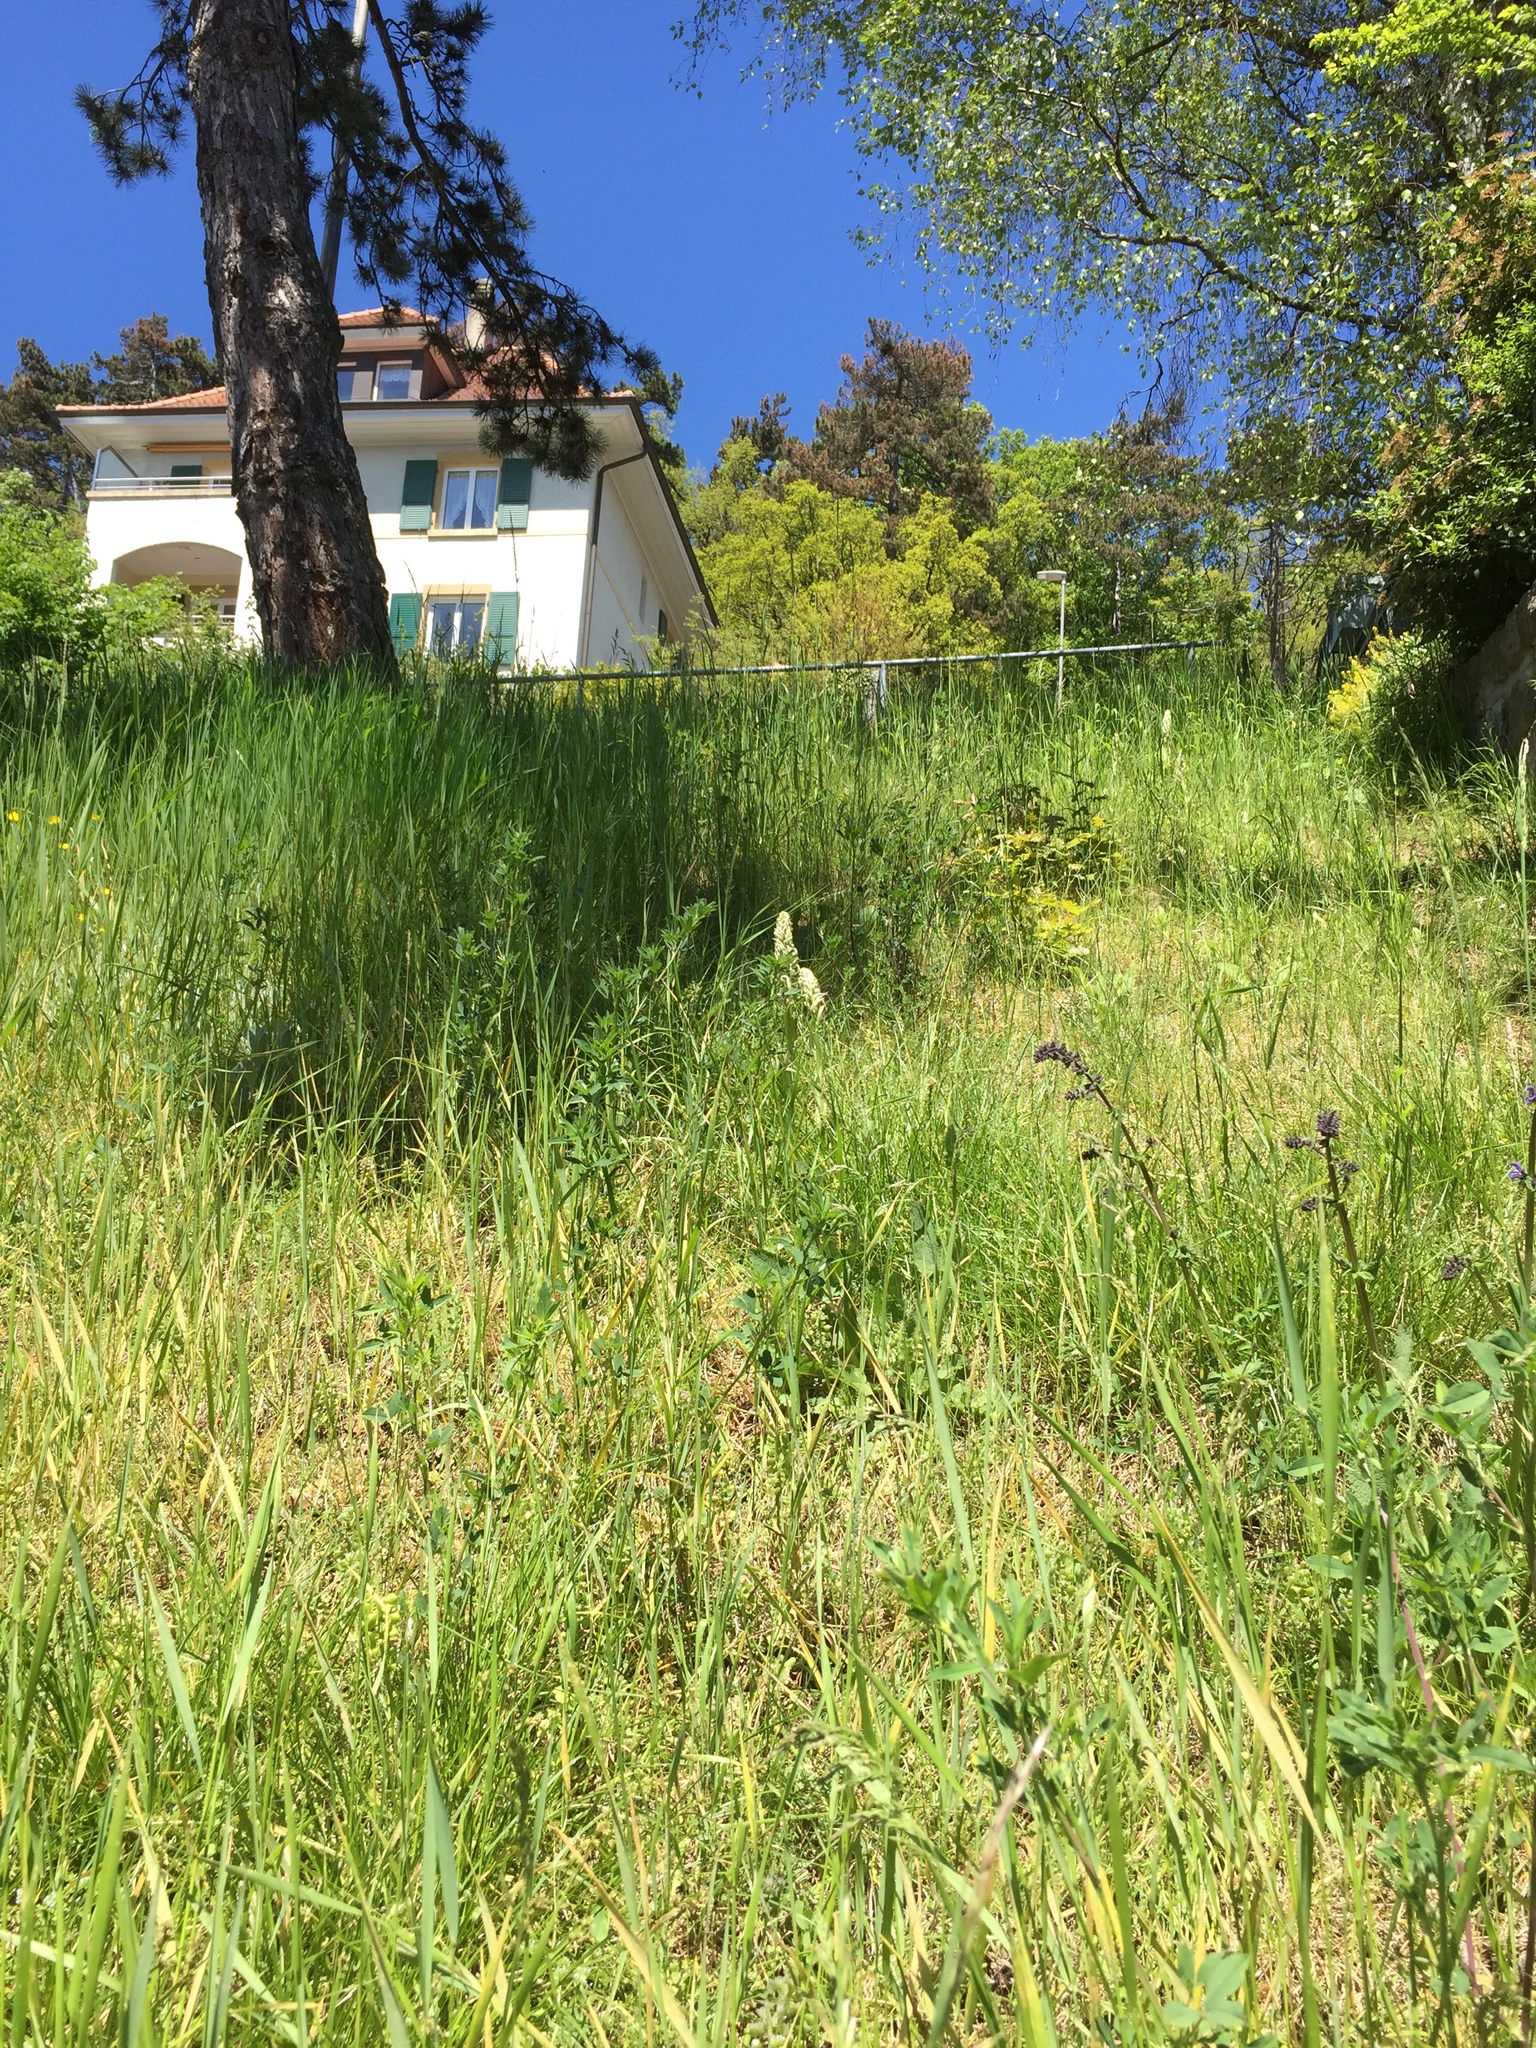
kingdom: Plantae
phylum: Tracheophyta
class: Liliopsida
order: Asparagales
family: Orchidaceae
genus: Himantoglossum
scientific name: Himantoglossum hircinum
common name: Lizard orchid
